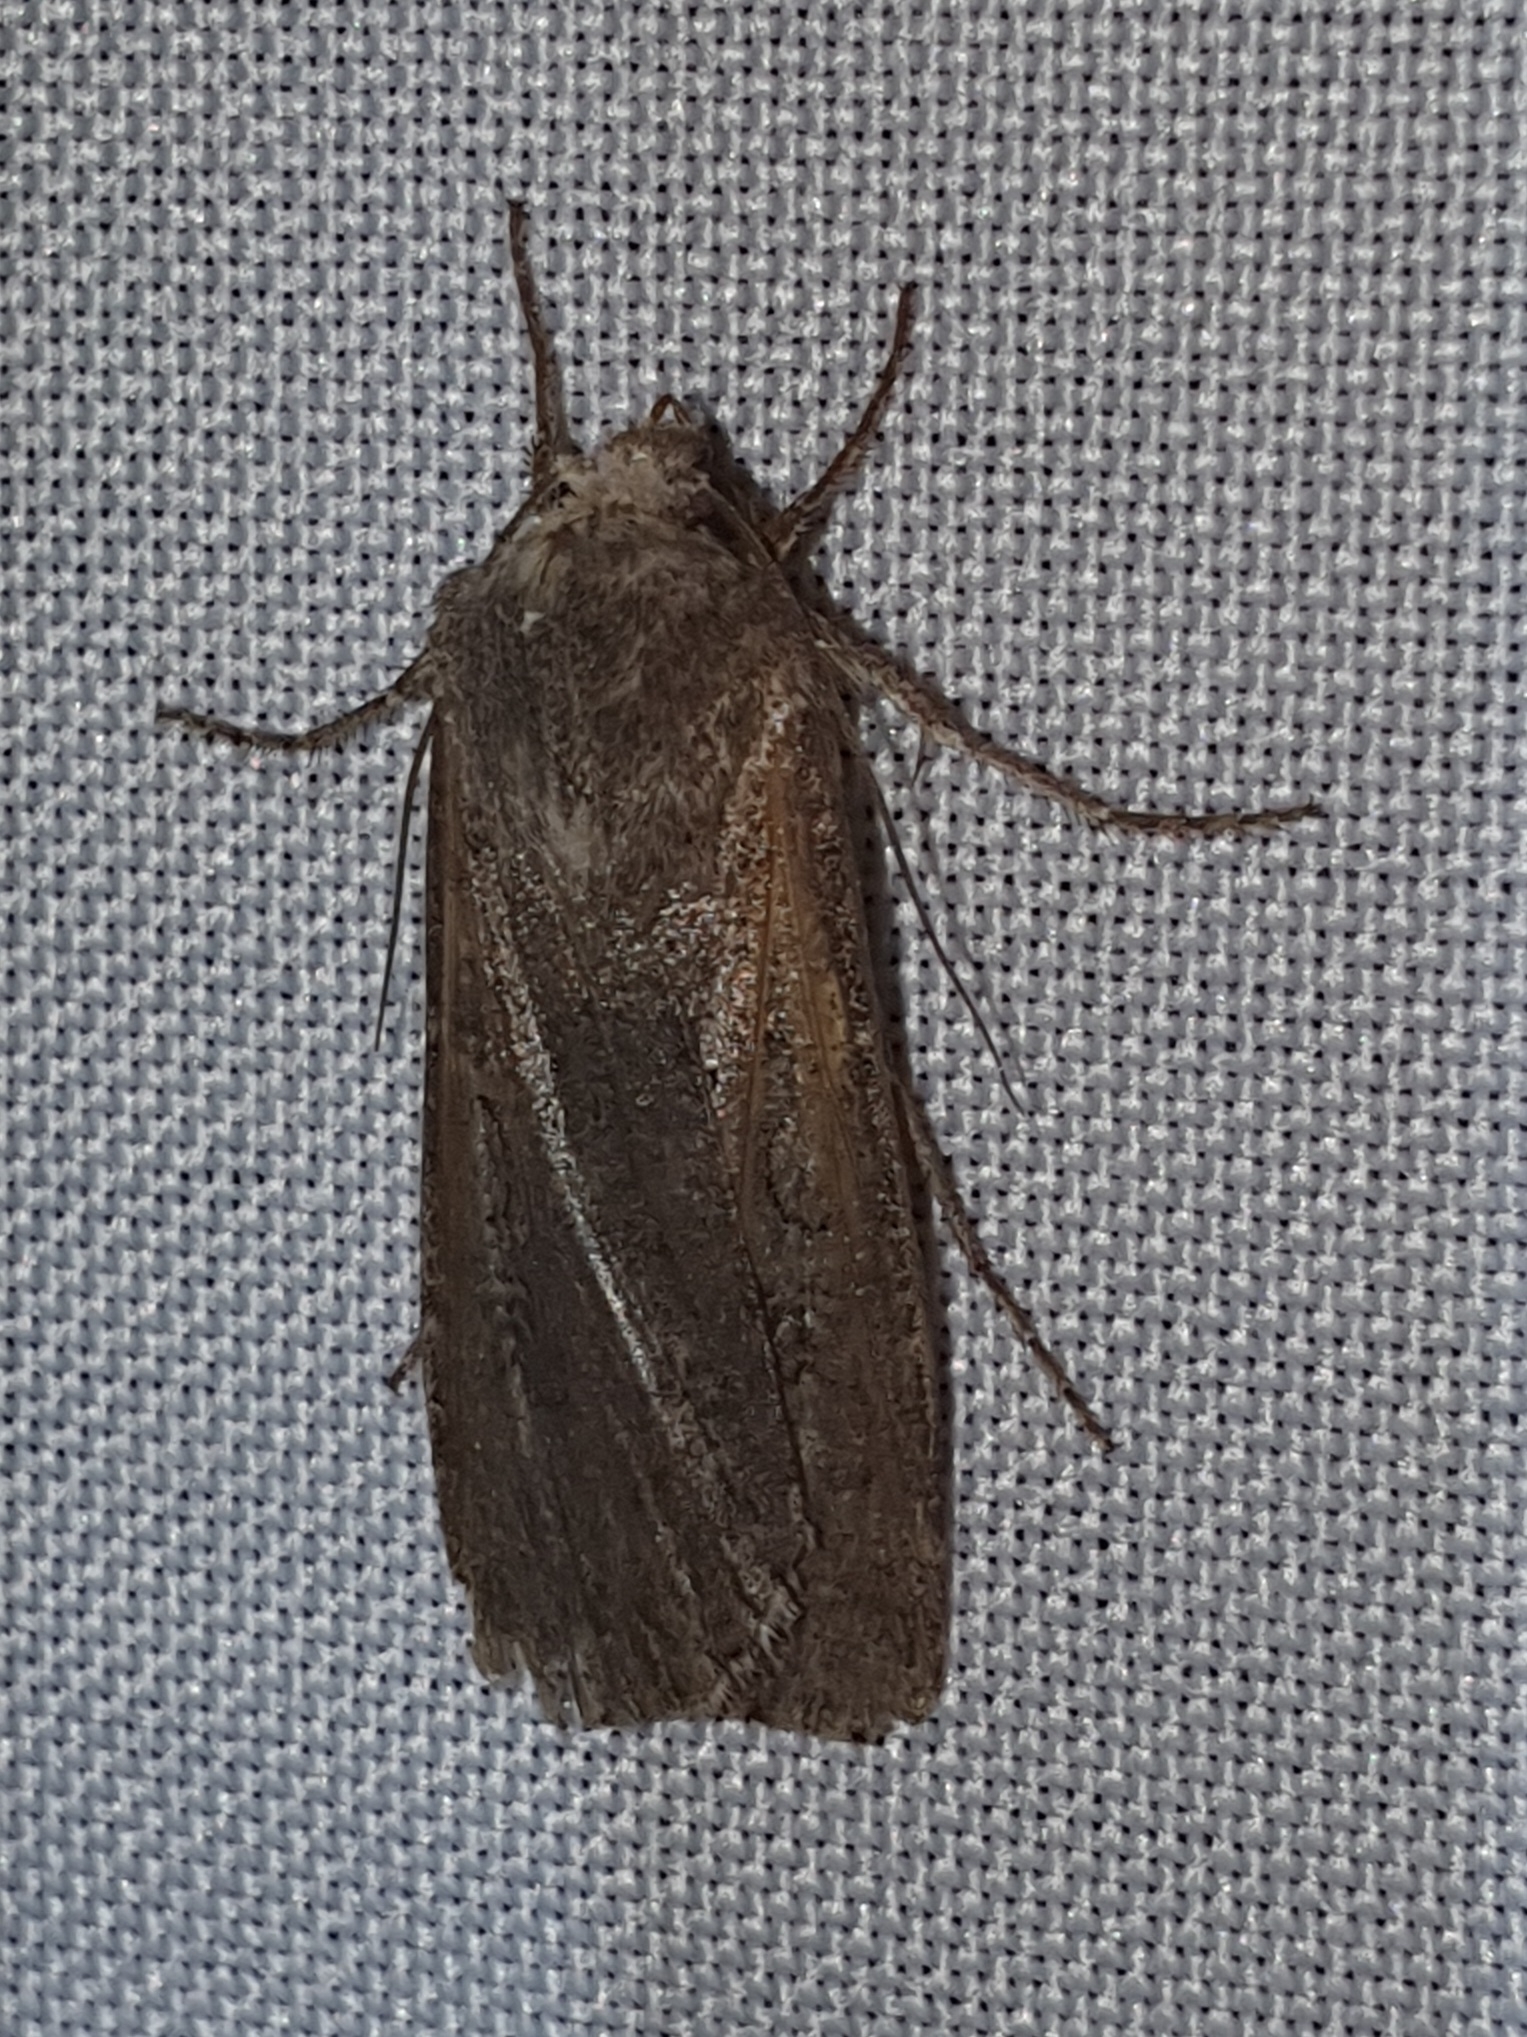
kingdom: Animalia
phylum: Arthropoda
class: Insecta
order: Lepidoptera
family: Noctuidae
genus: Peridroma
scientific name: Peridroma saucia
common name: Pearly underwing
